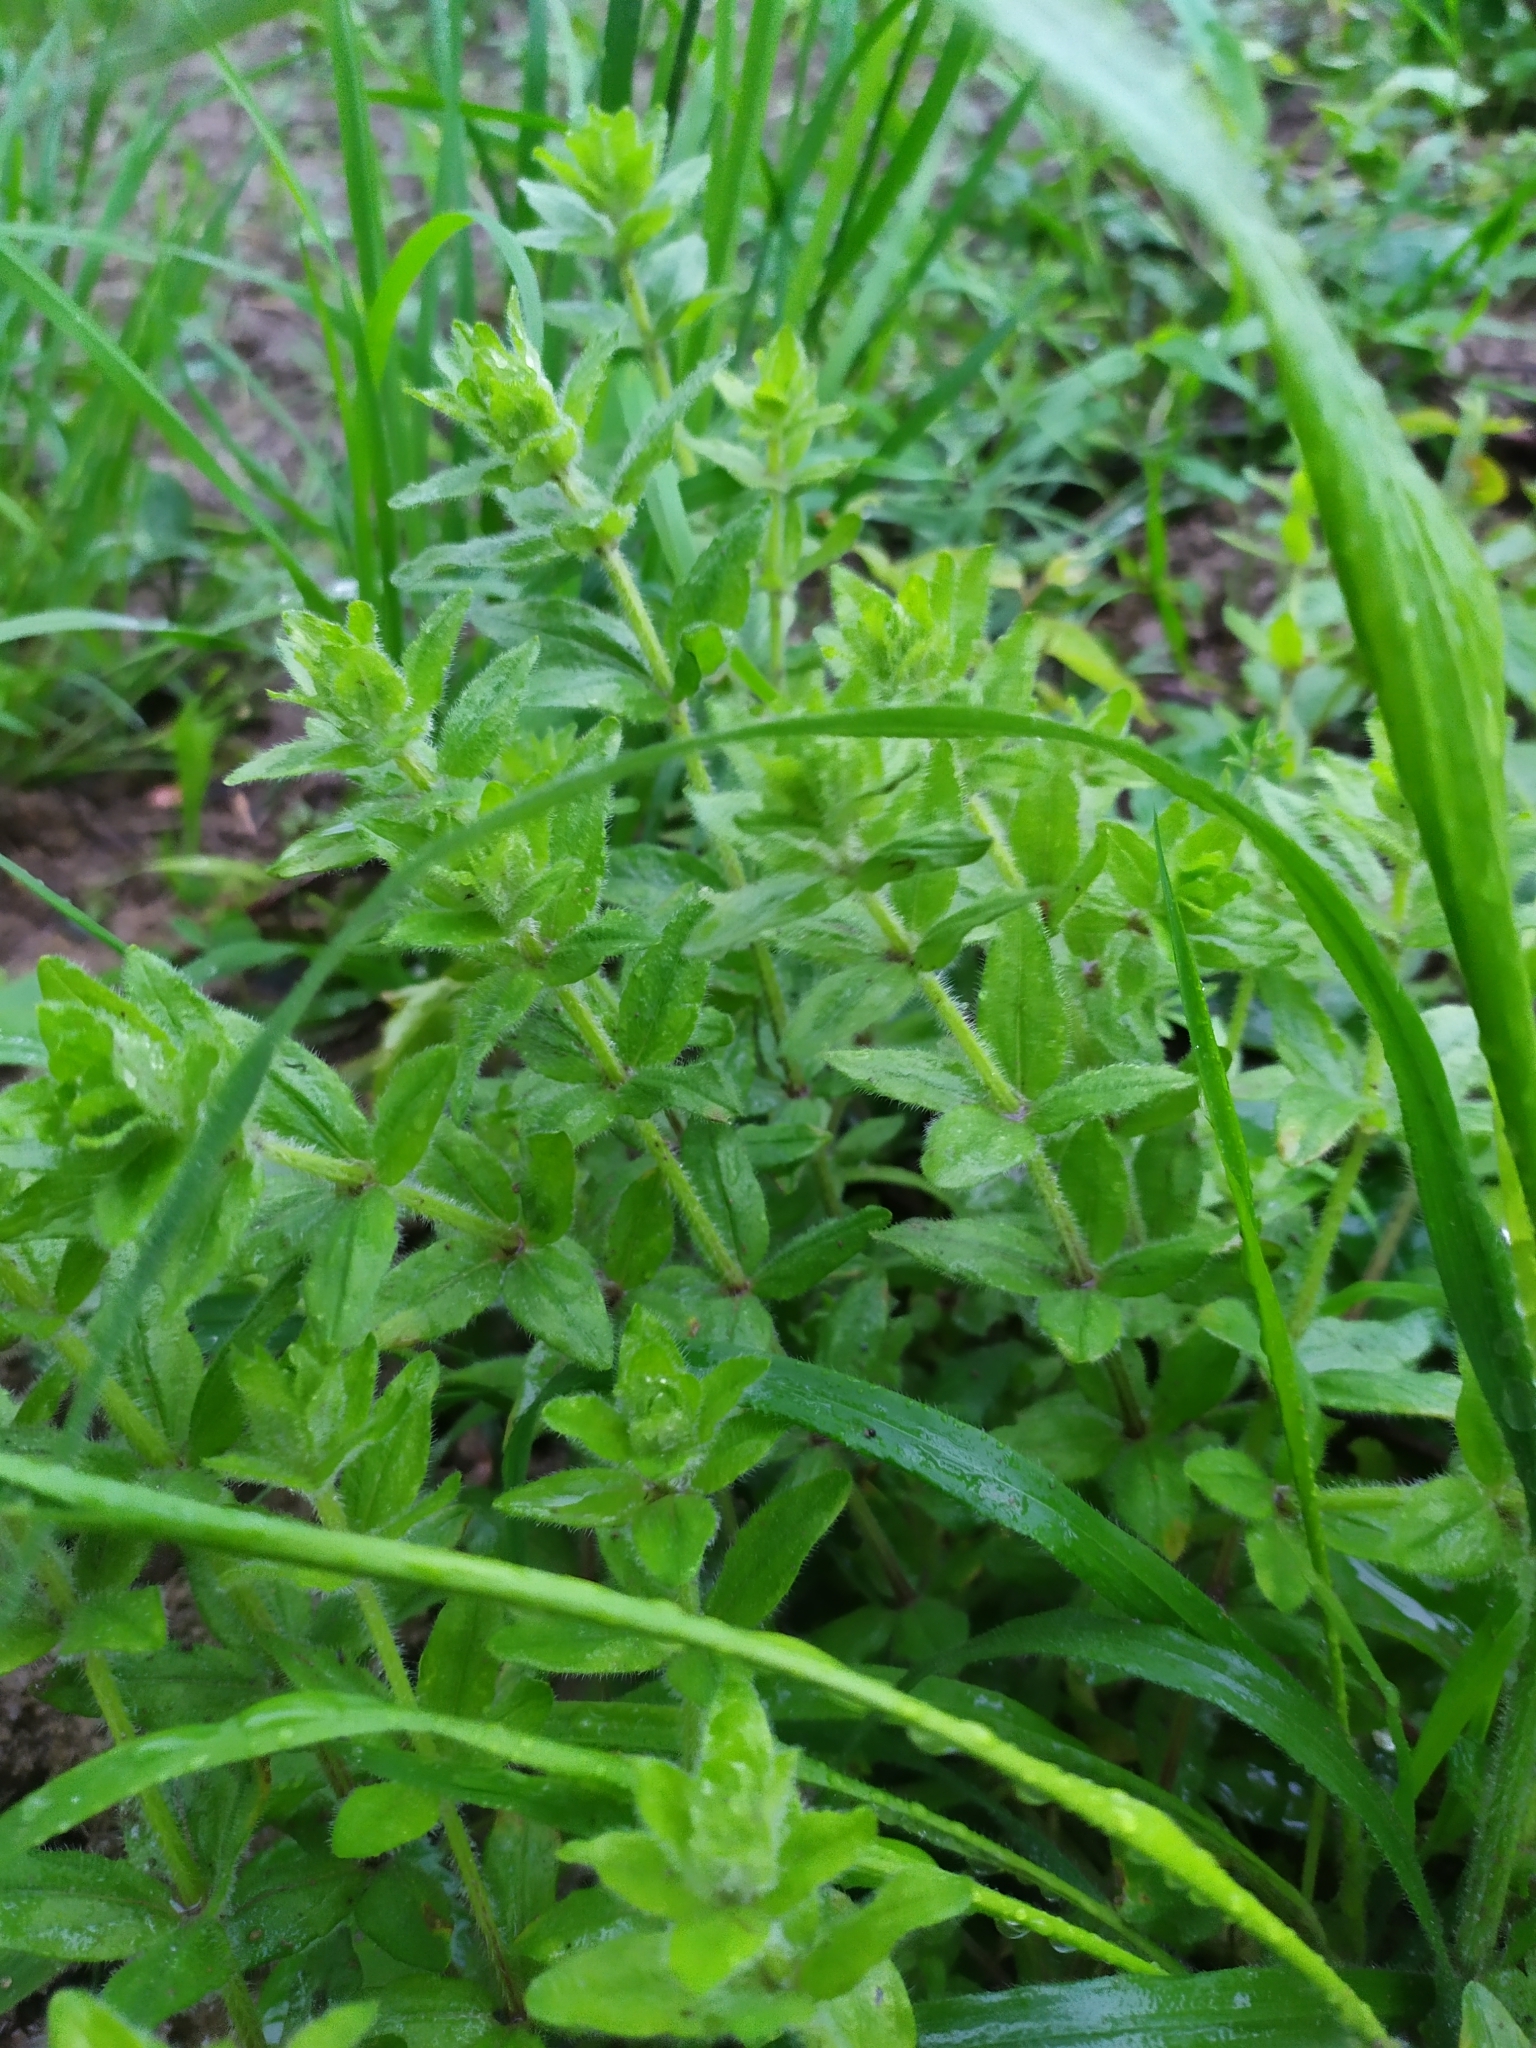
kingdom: Plantae
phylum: Tracheophyta
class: Magnoliopsida
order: Gentianales
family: Rubiaceae
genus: Cruciata
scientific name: Cruciata laevipes
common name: Crosswort
